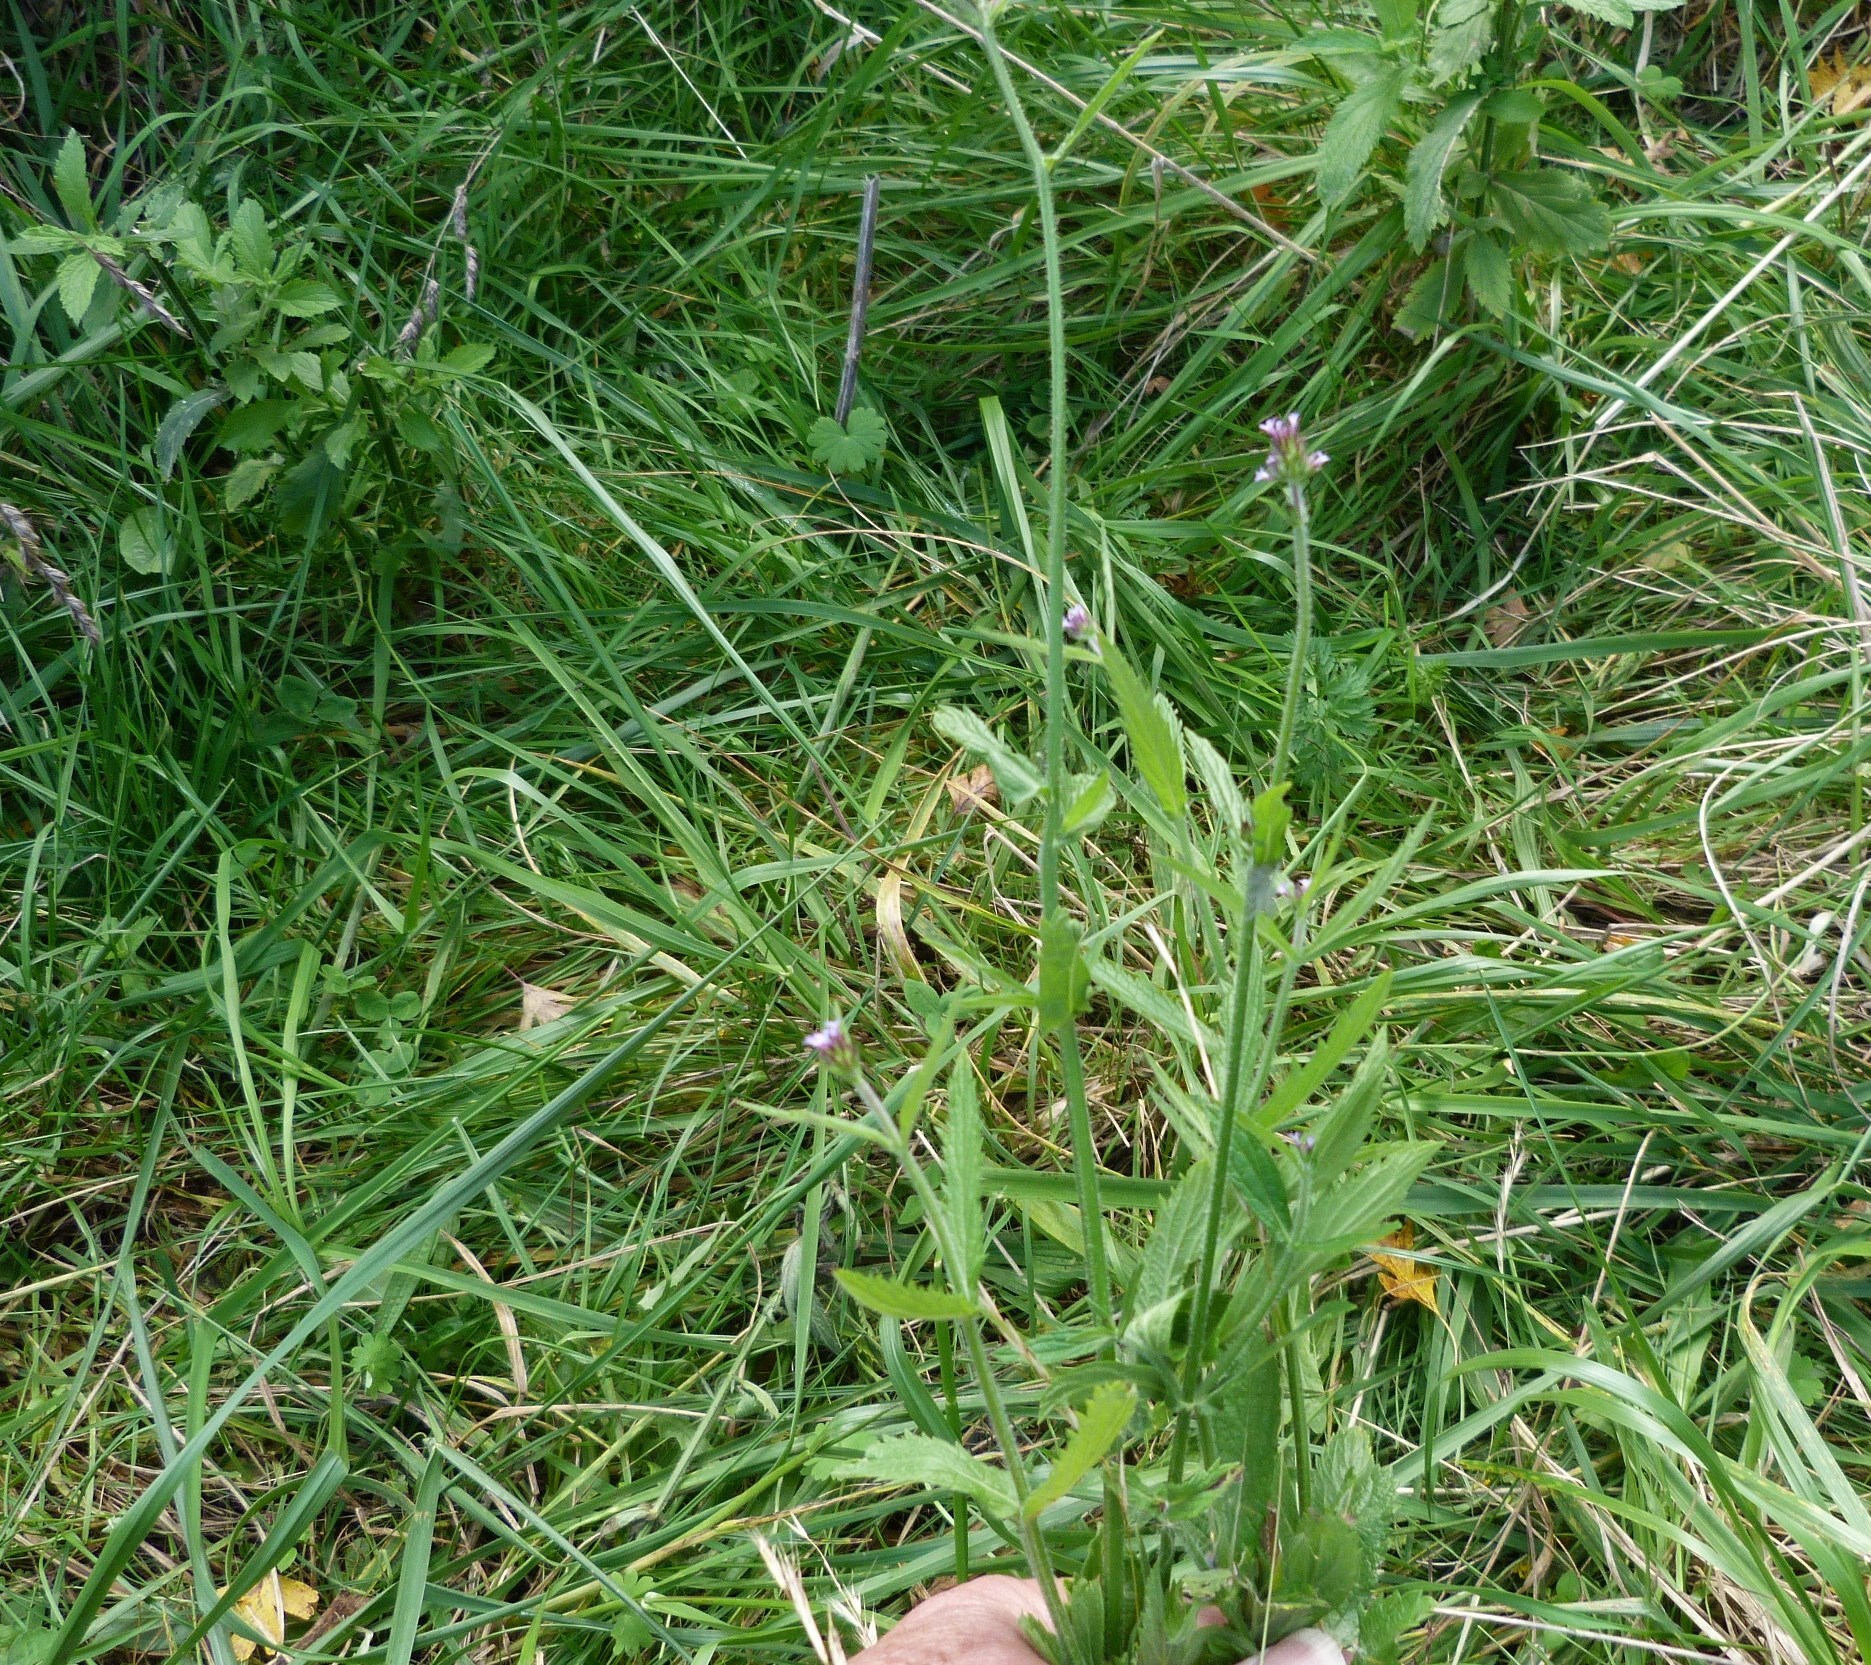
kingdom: Plantae
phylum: Tracheophyta
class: Magnoliopsida
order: Lamiales
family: Verbenaceae
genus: Verbena
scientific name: Verbena brasiliensis
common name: Brazilian vervain
